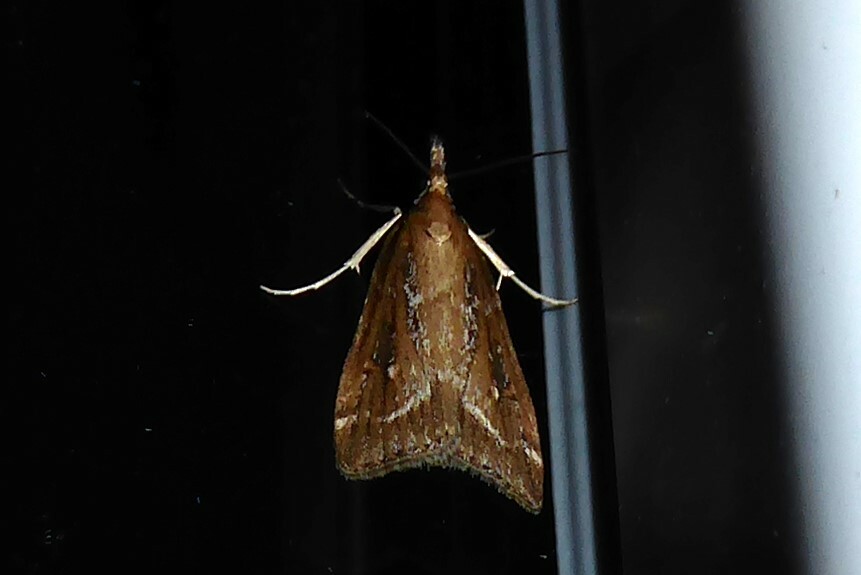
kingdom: Animalia
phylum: Arthropoda
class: Insecta
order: Lepidoptera
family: Crambidae
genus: Eudonia
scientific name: Eudonia octophora
